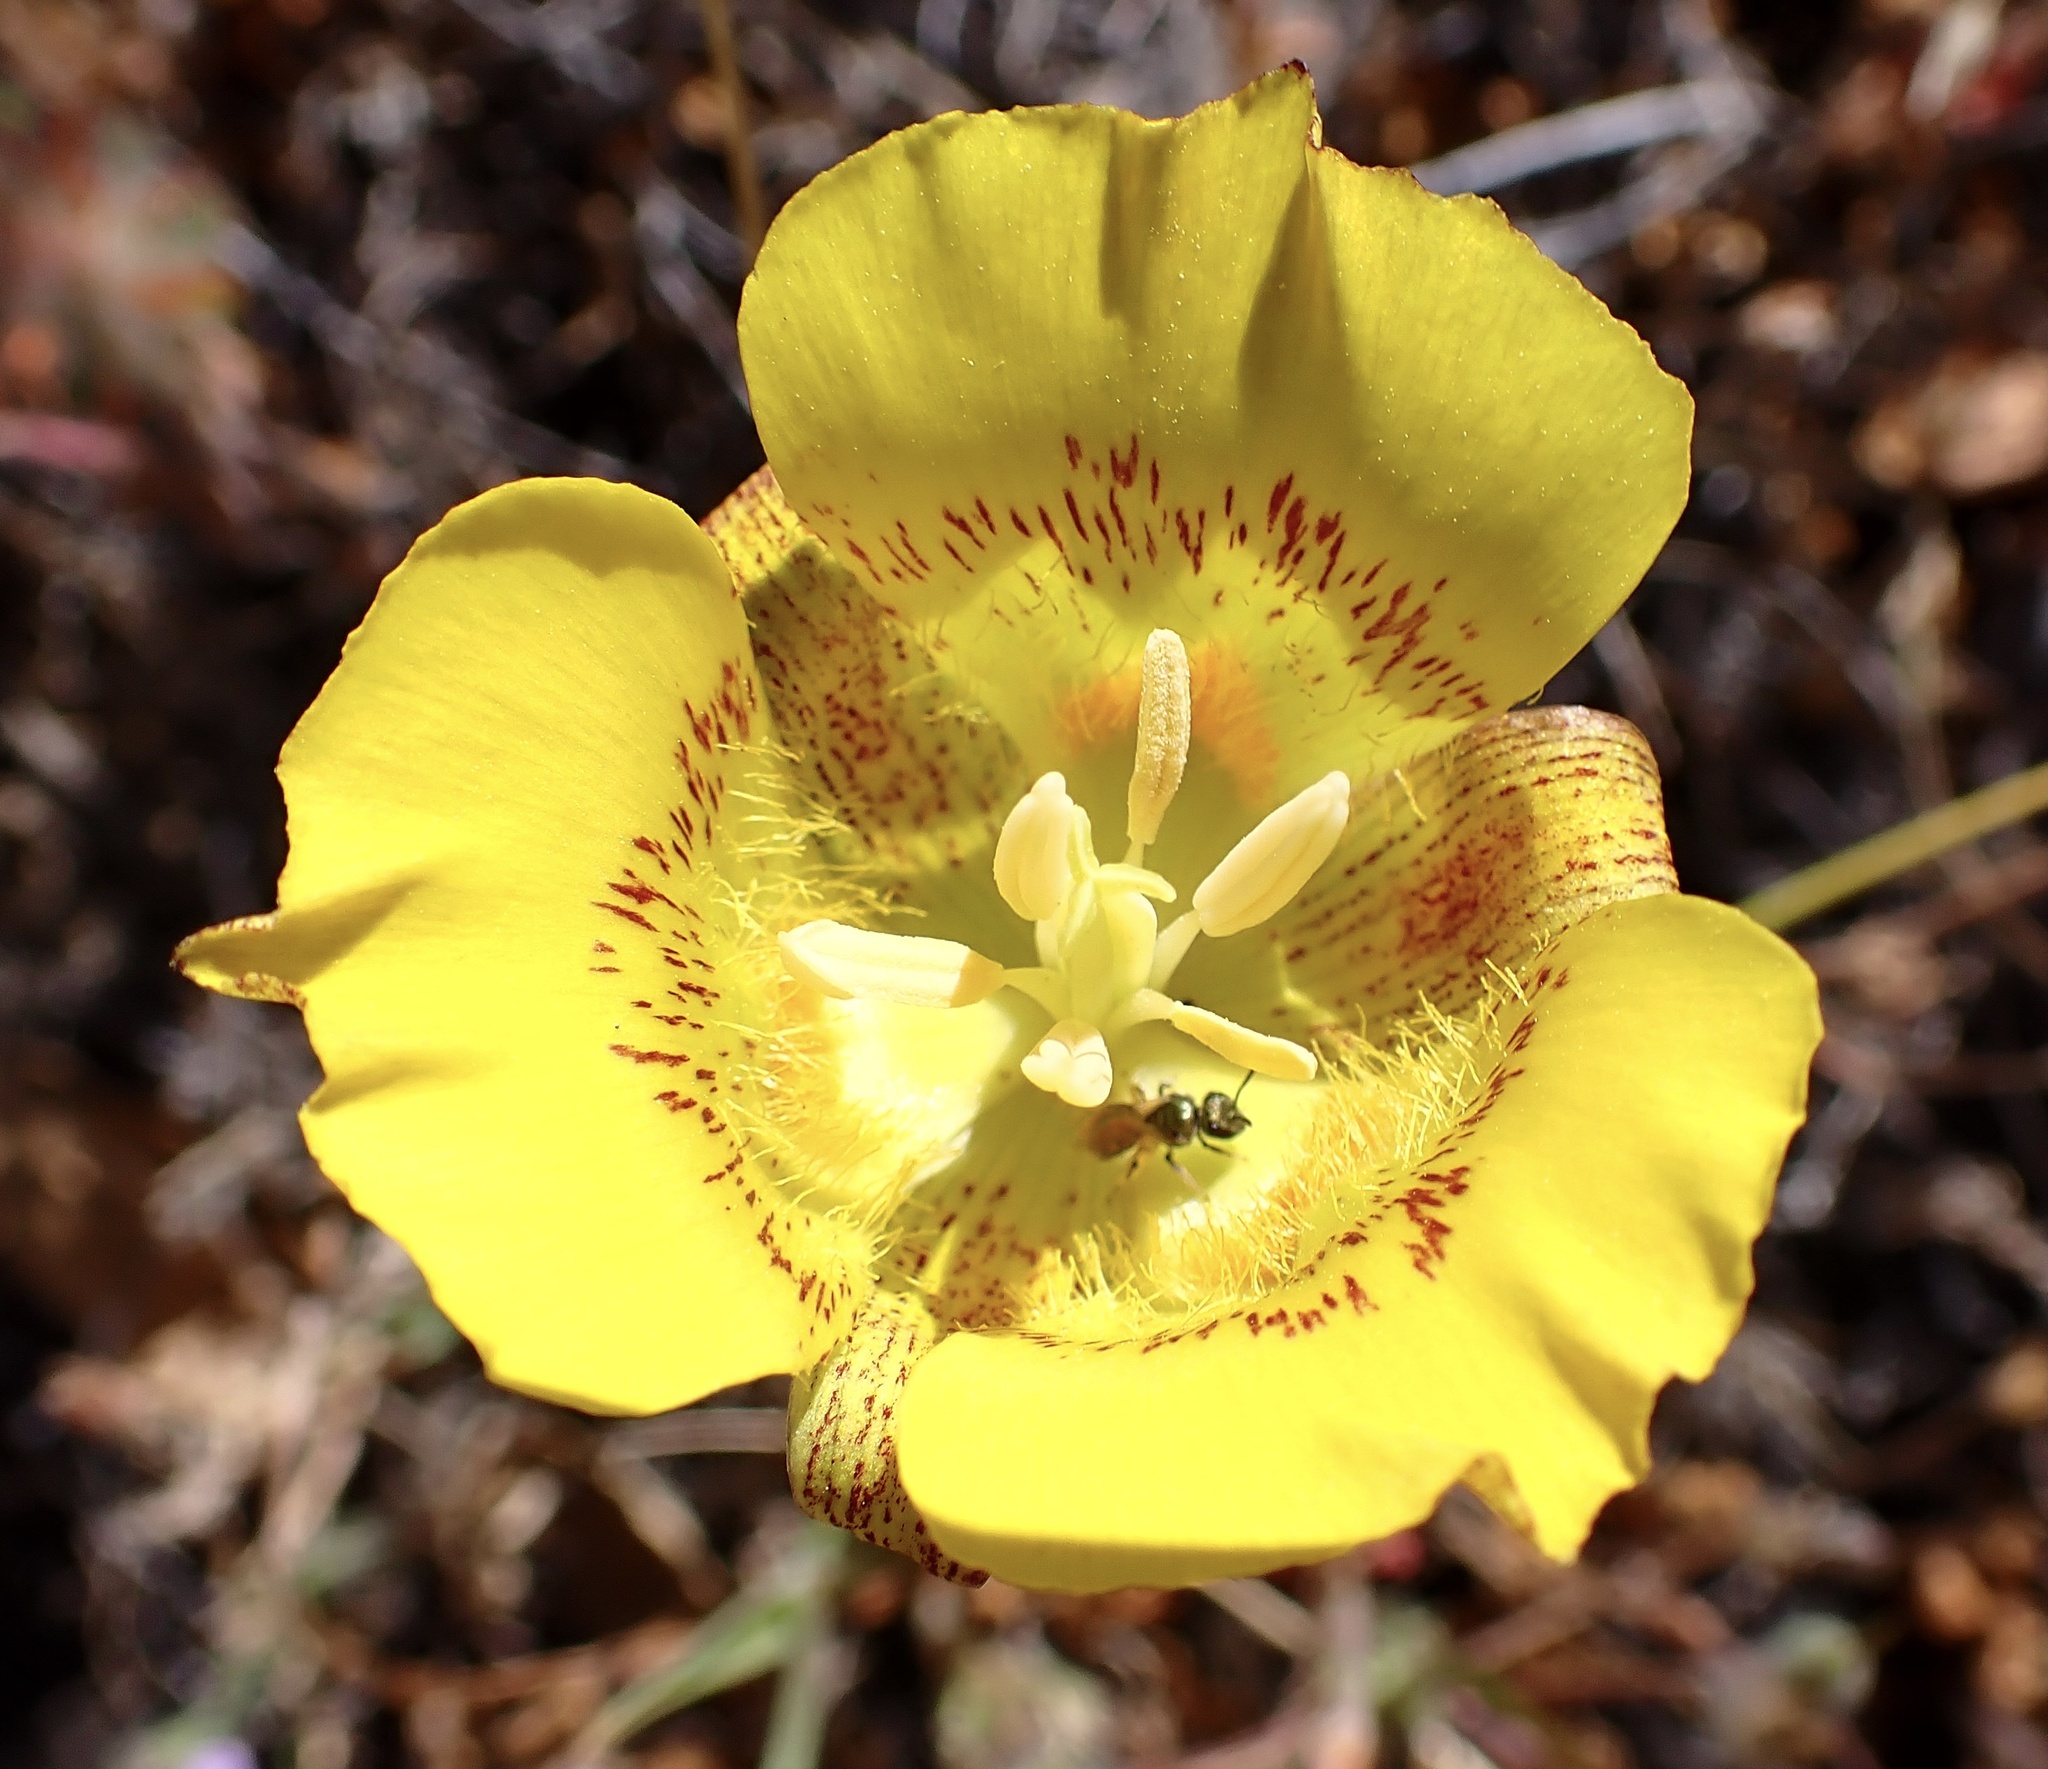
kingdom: Plantae
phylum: Tracheophyta
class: Liliopsida
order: Liliales
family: Liliaceae
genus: Calochortus
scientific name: Calochortus luteus
